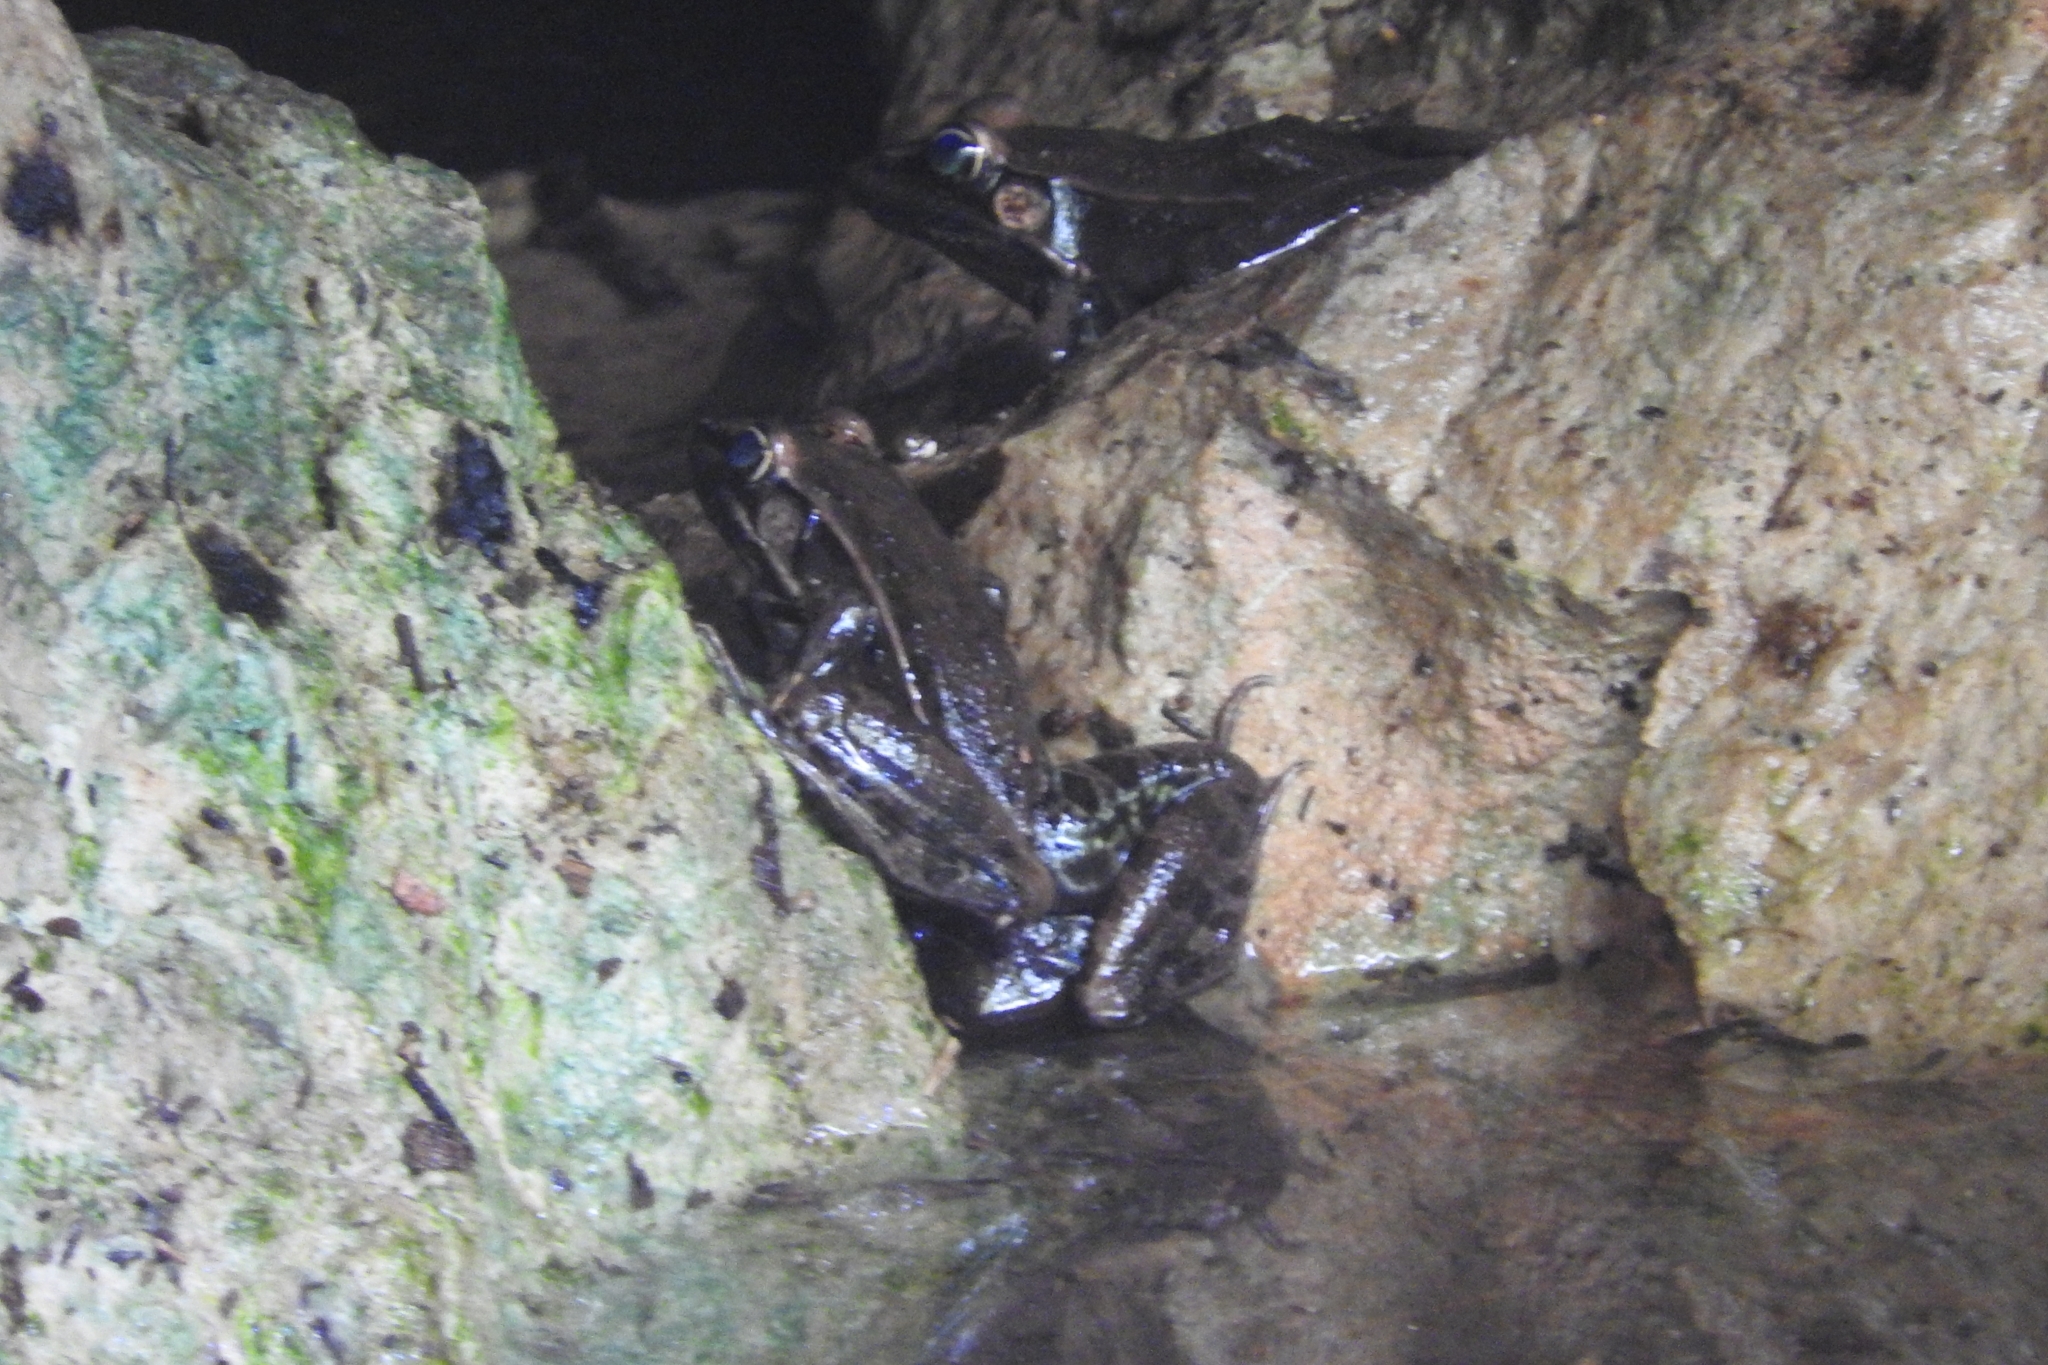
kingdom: Animalia
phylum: Chordata
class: Amphibia
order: Anura
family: Ranidae
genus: Lithobates
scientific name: Lithobates brownorum
